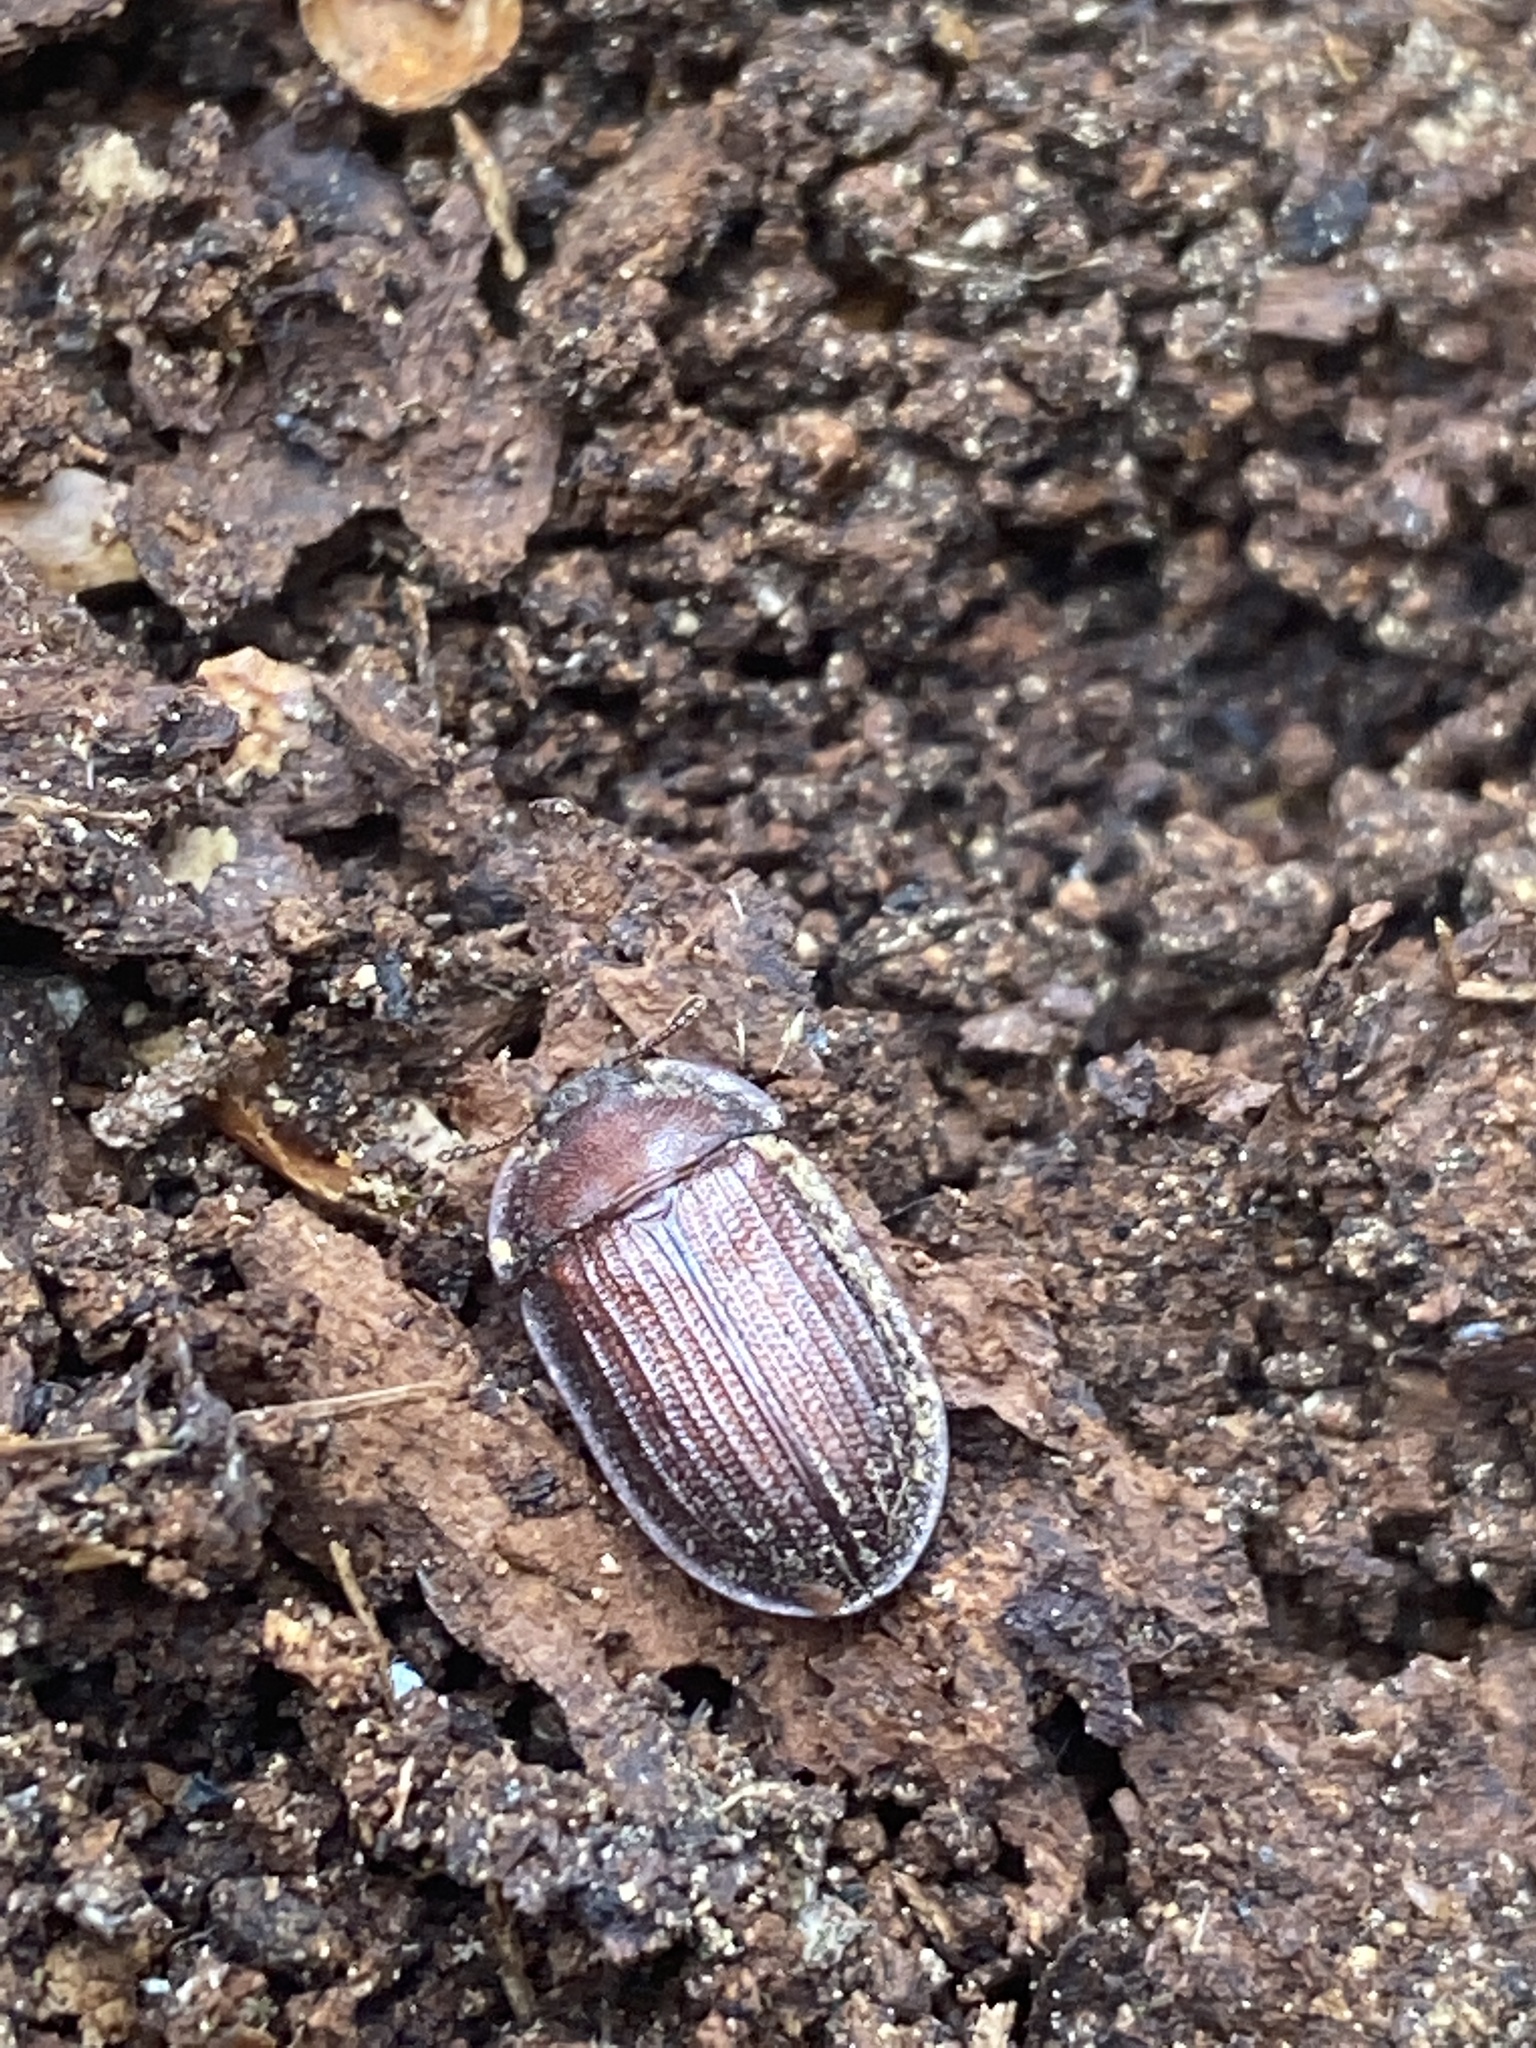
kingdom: Animalia
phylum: Arthropoda
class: Insecta
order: Coleoptera
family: Trogossitidae
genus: Peltis
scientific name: Peltis ferruginea
